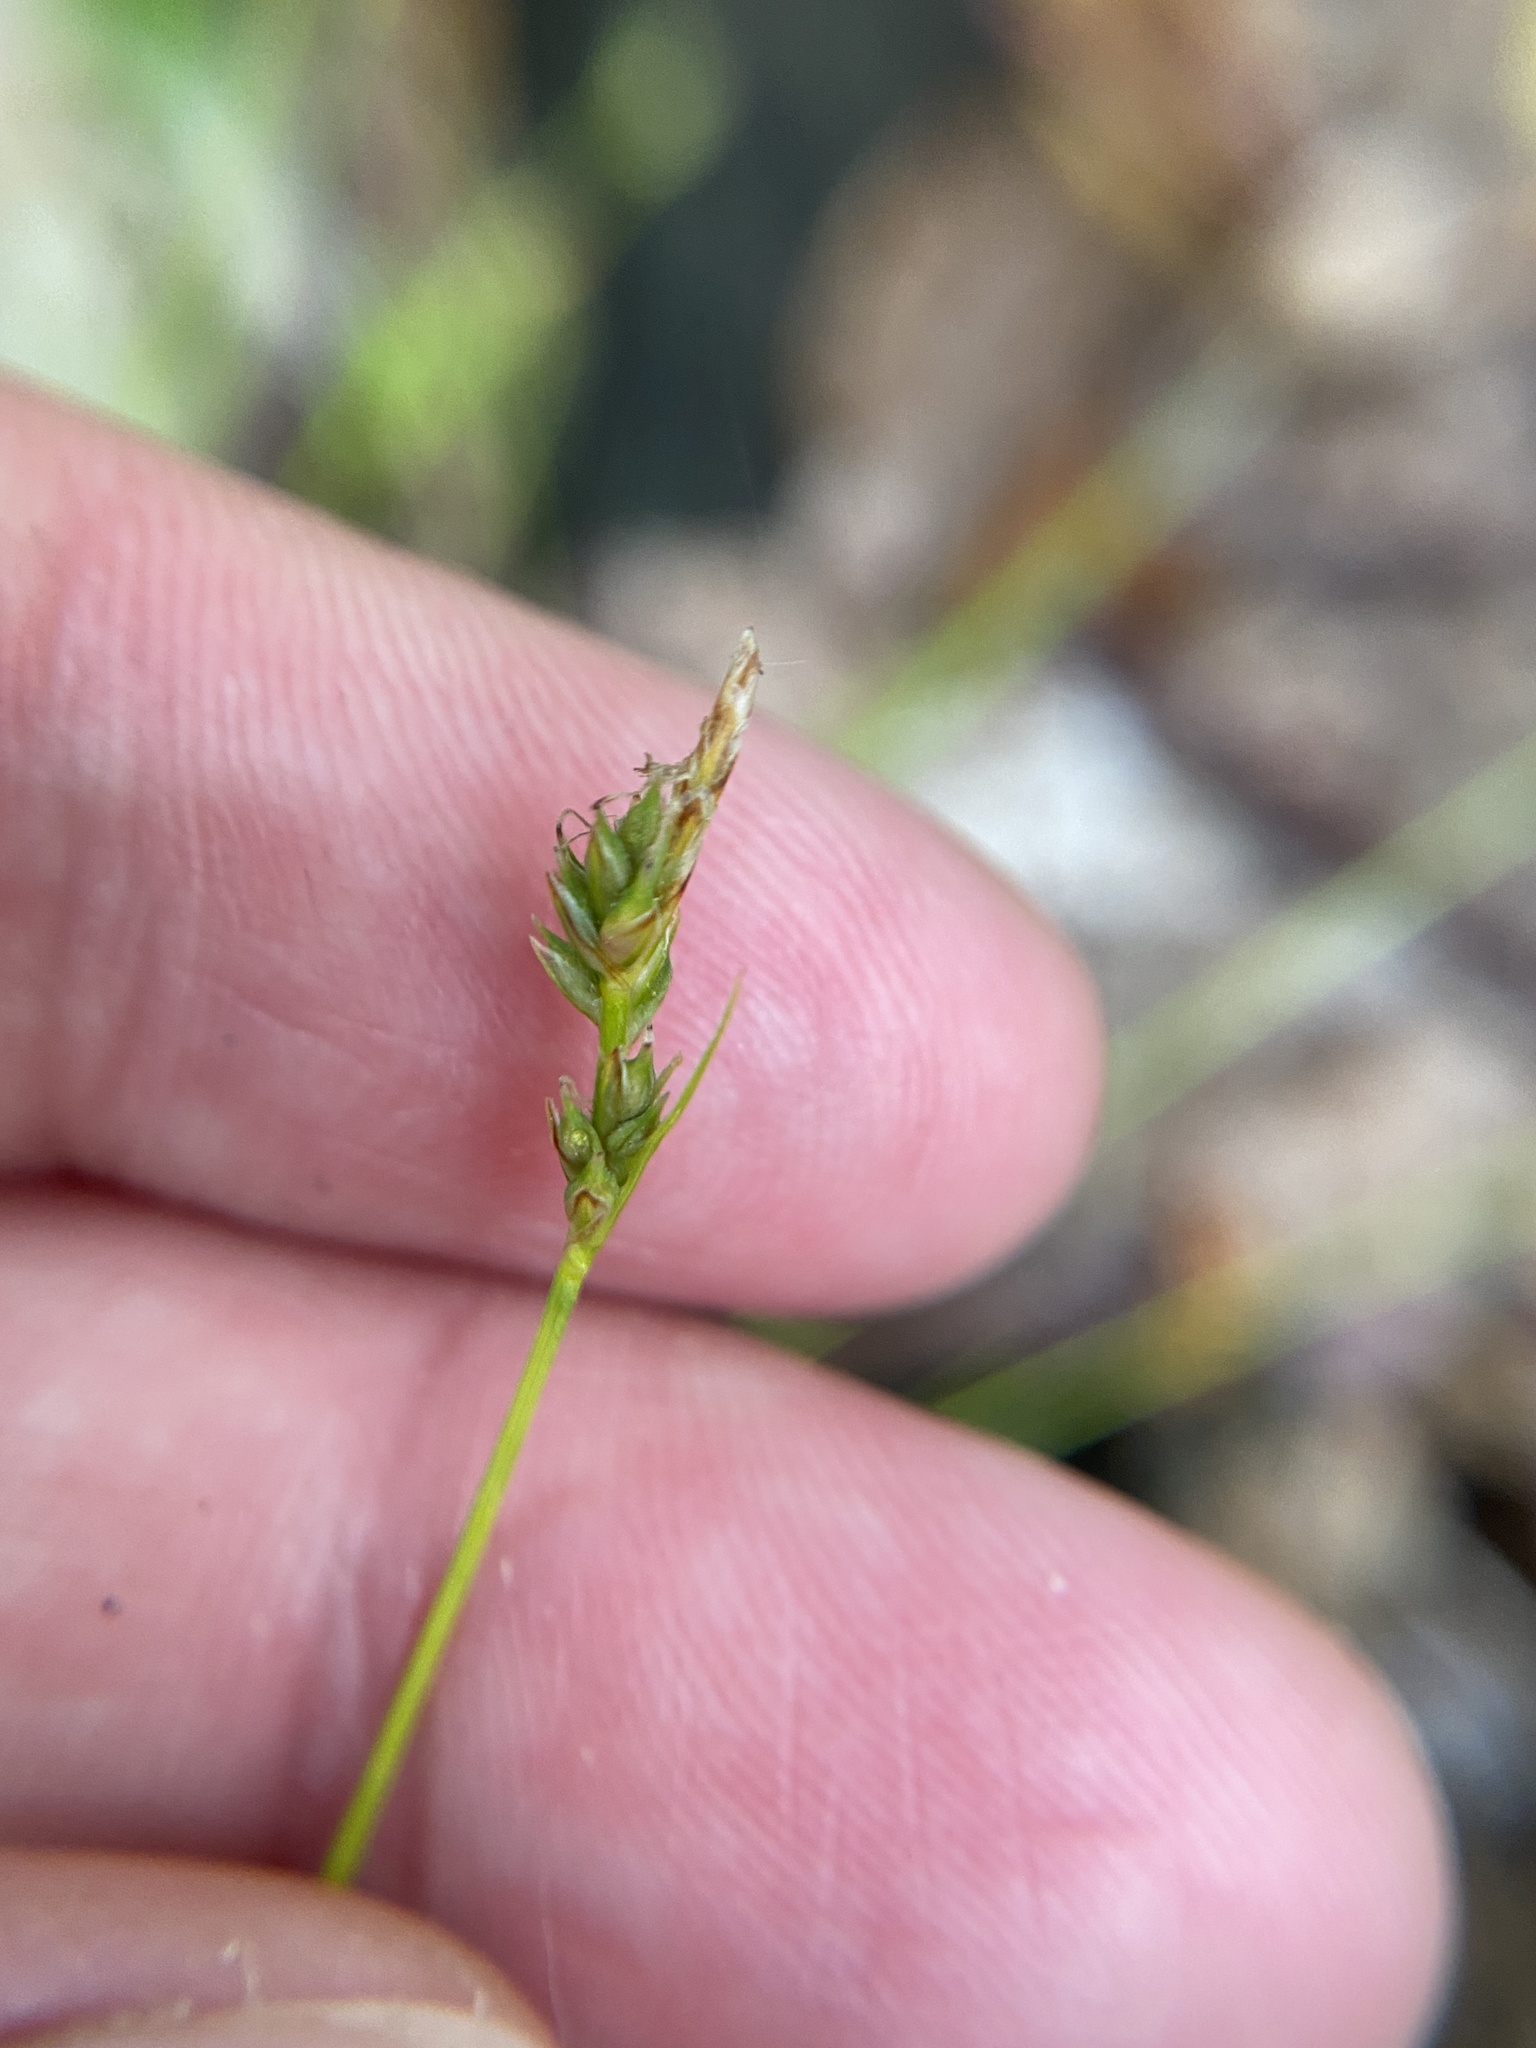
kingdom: Plantae
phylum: Tracheophyta
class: Liliopsida
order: Poales
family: Cyperaceae
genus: Carex
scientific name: Carex albicans
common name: Bellow-beaked sedge
